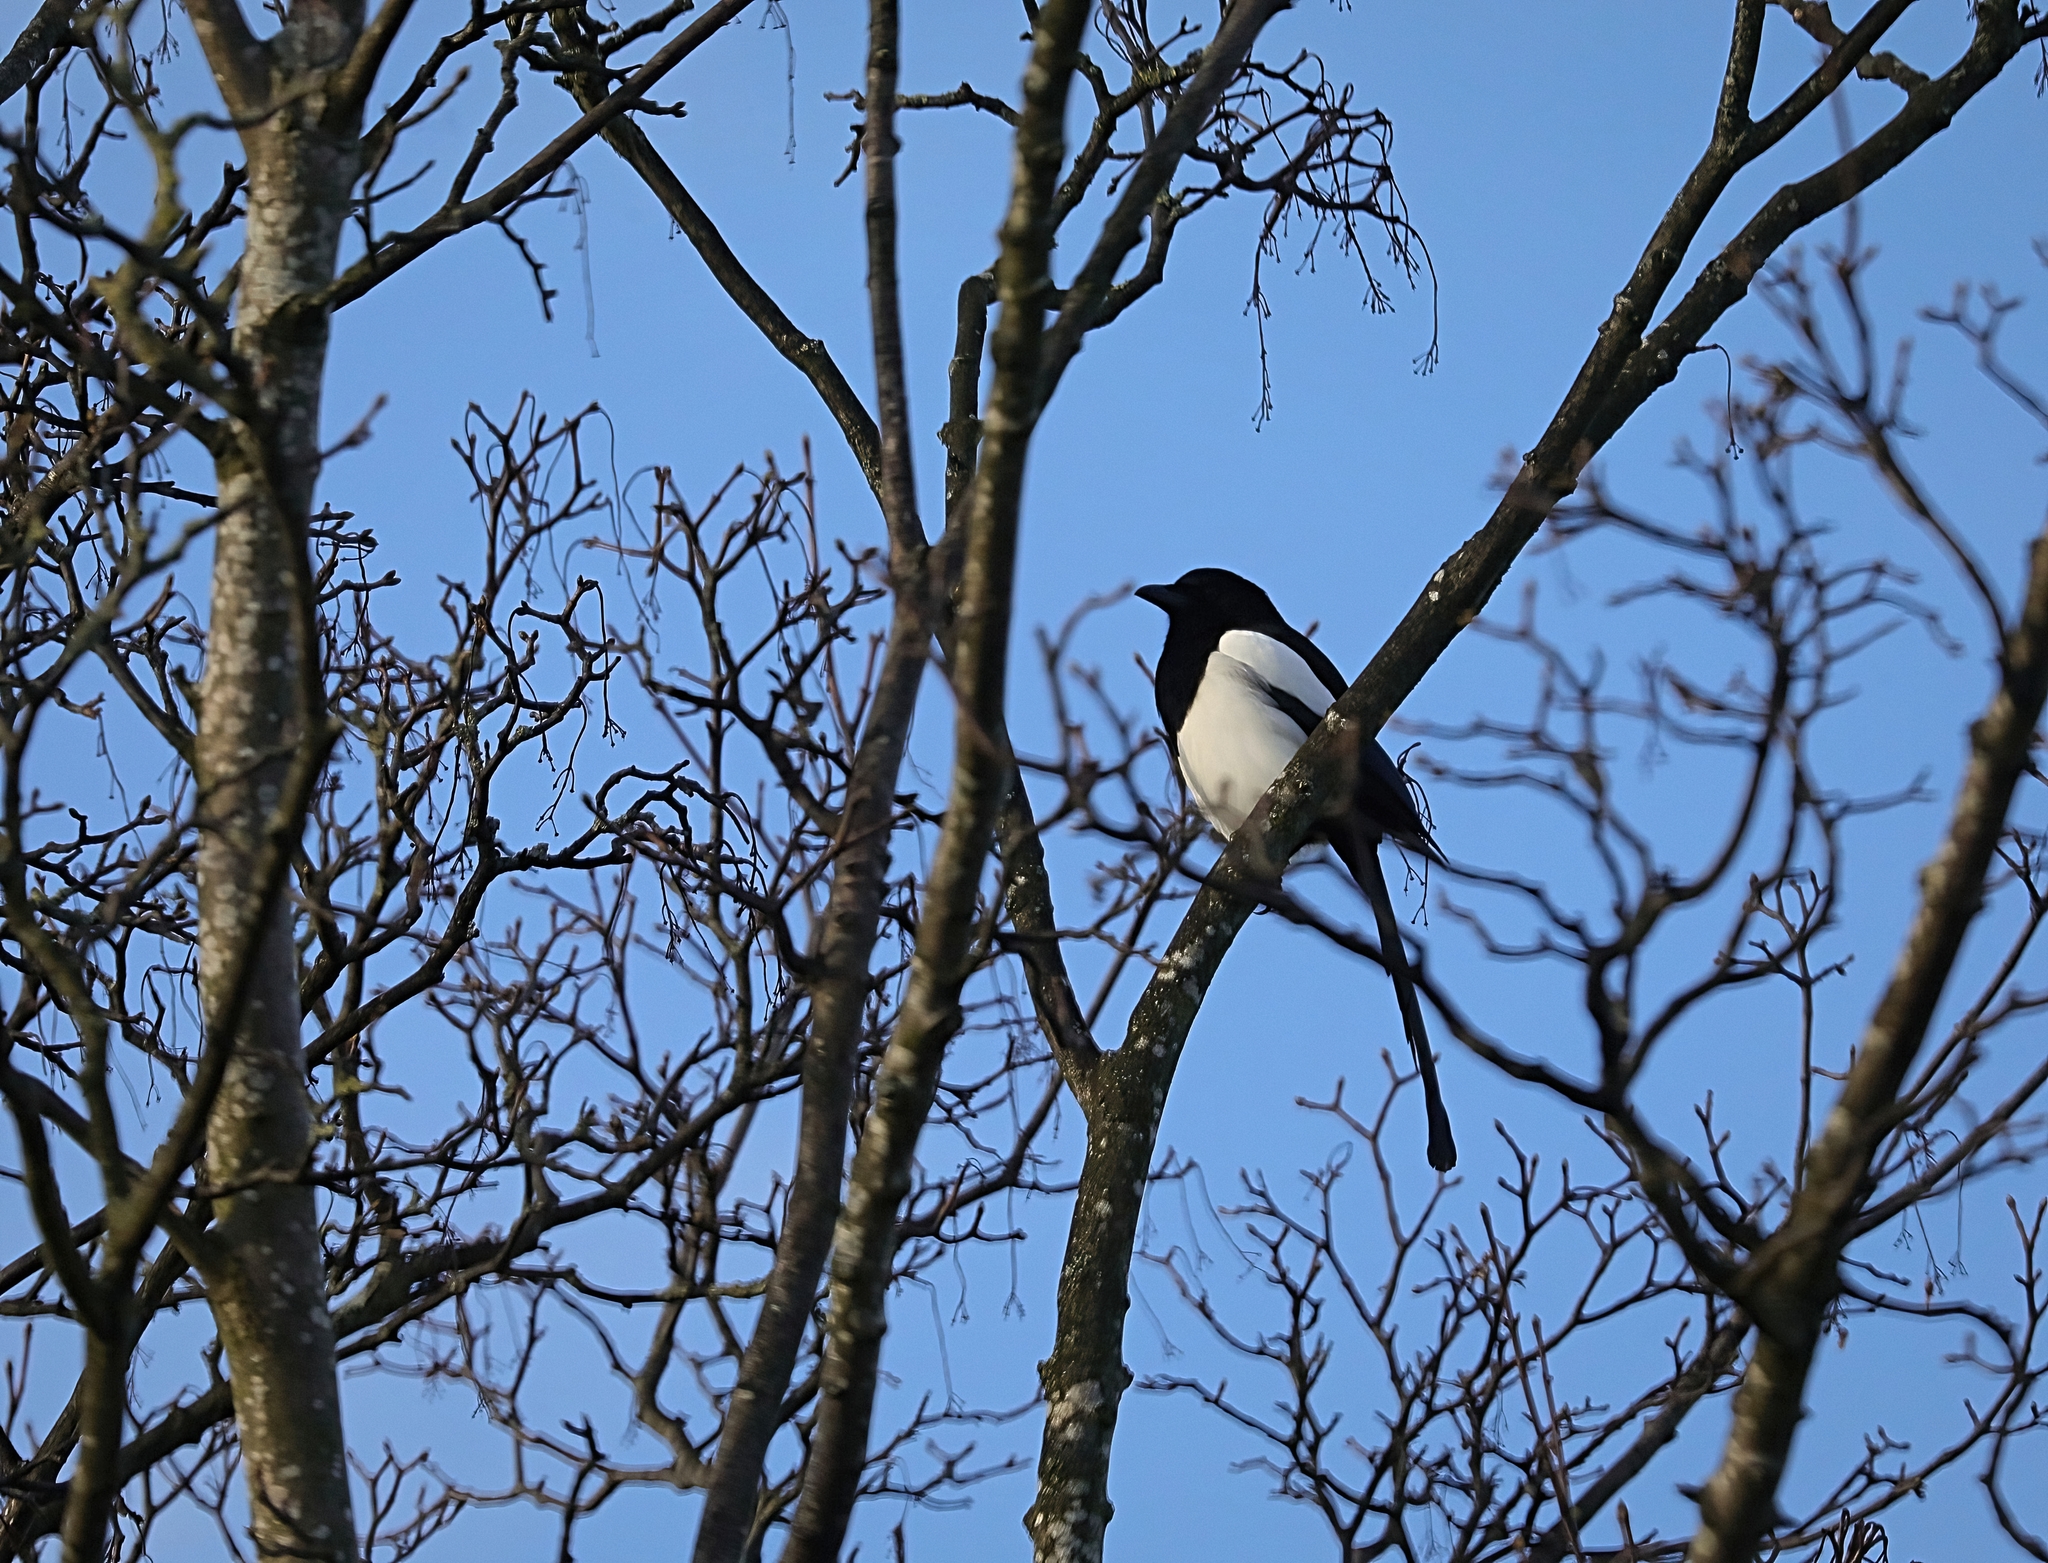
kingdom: Animalia
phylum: Chordata
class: Aves
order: Passeriformes
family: Corvidae
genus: Pica
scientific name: Pica pica
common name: Eurasian magpie
